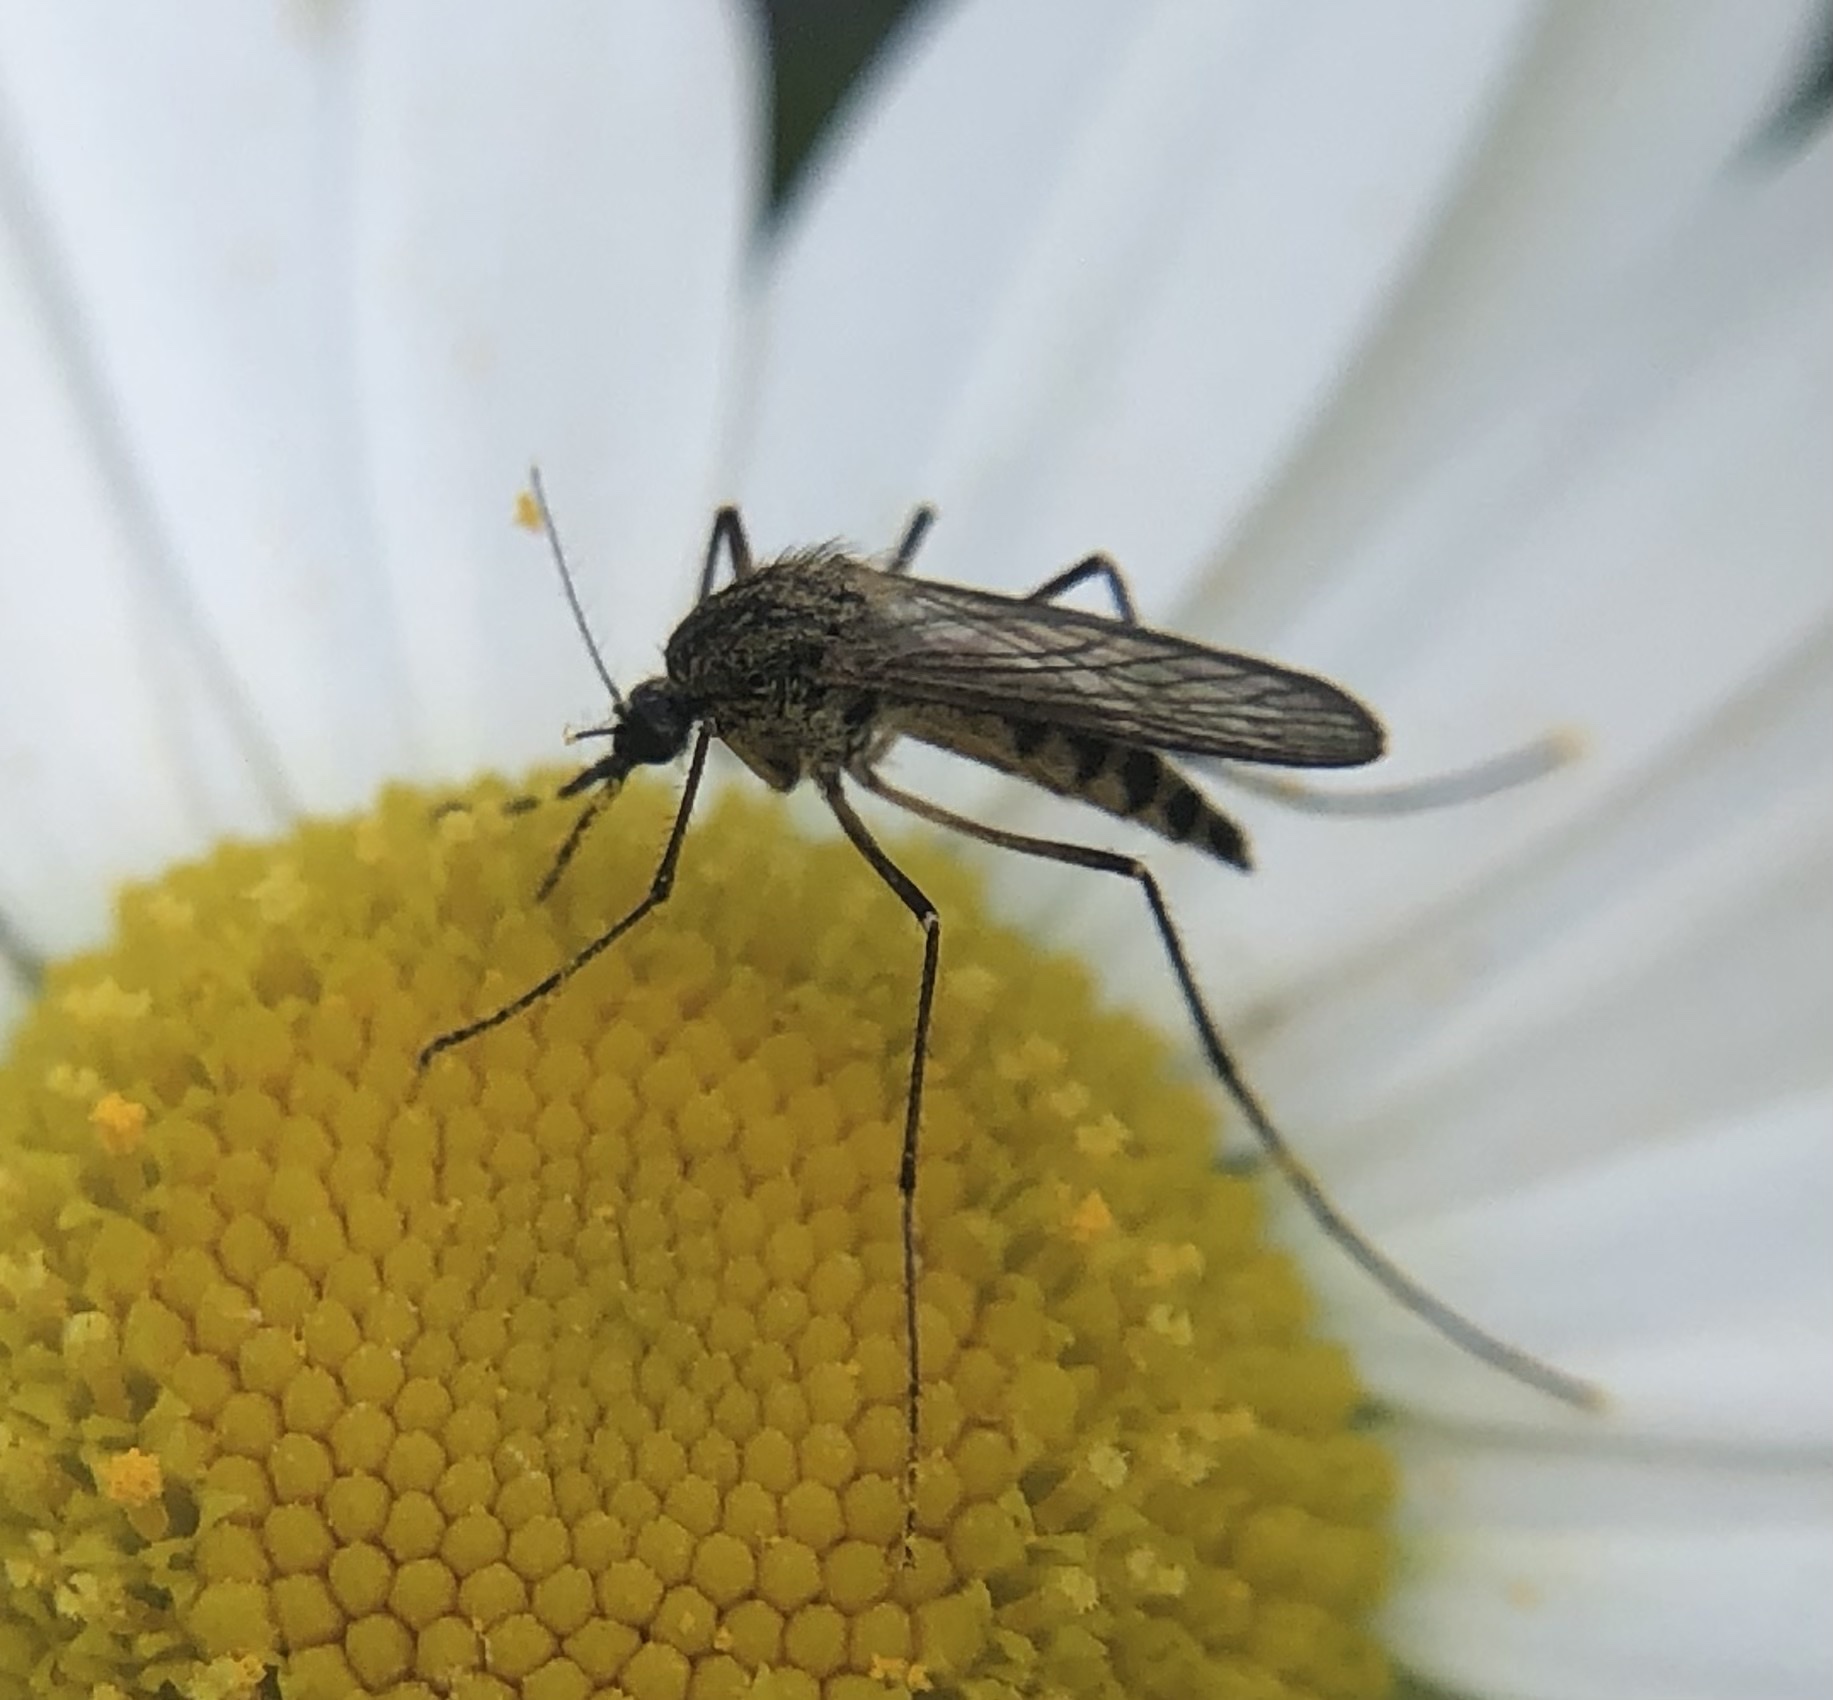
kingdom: Animalia
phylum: Arthropoda
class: Insecta
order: Diptera
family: Culicidae
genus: Aedes
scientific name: Aedes punctor
